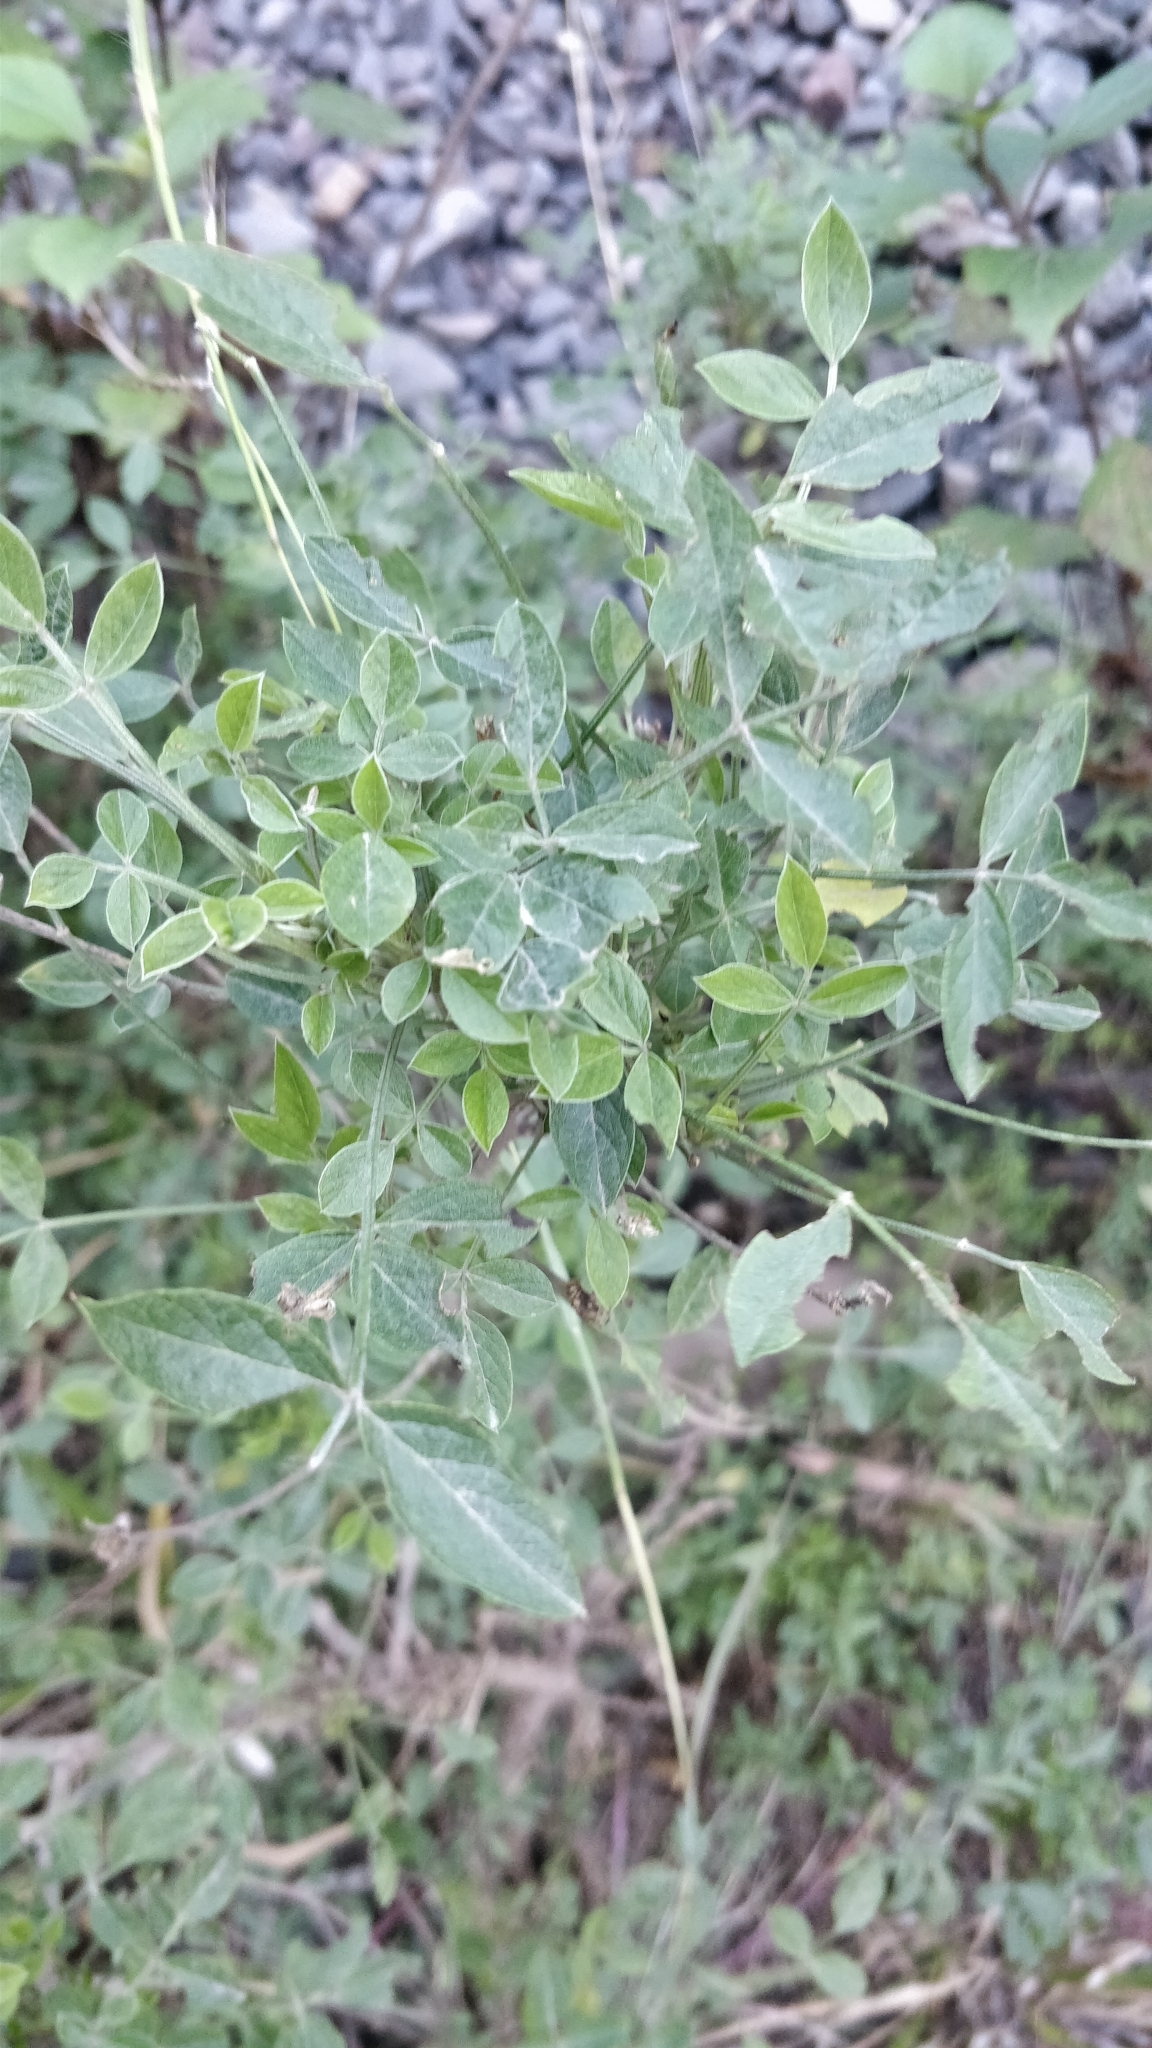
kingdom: Plantae
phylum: Tracheophyta
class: Magnoliopsida
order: Fabales
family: Fabaceae
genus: Bituminaria
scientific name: Bituminaria bituminosa
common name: Arabian pea
